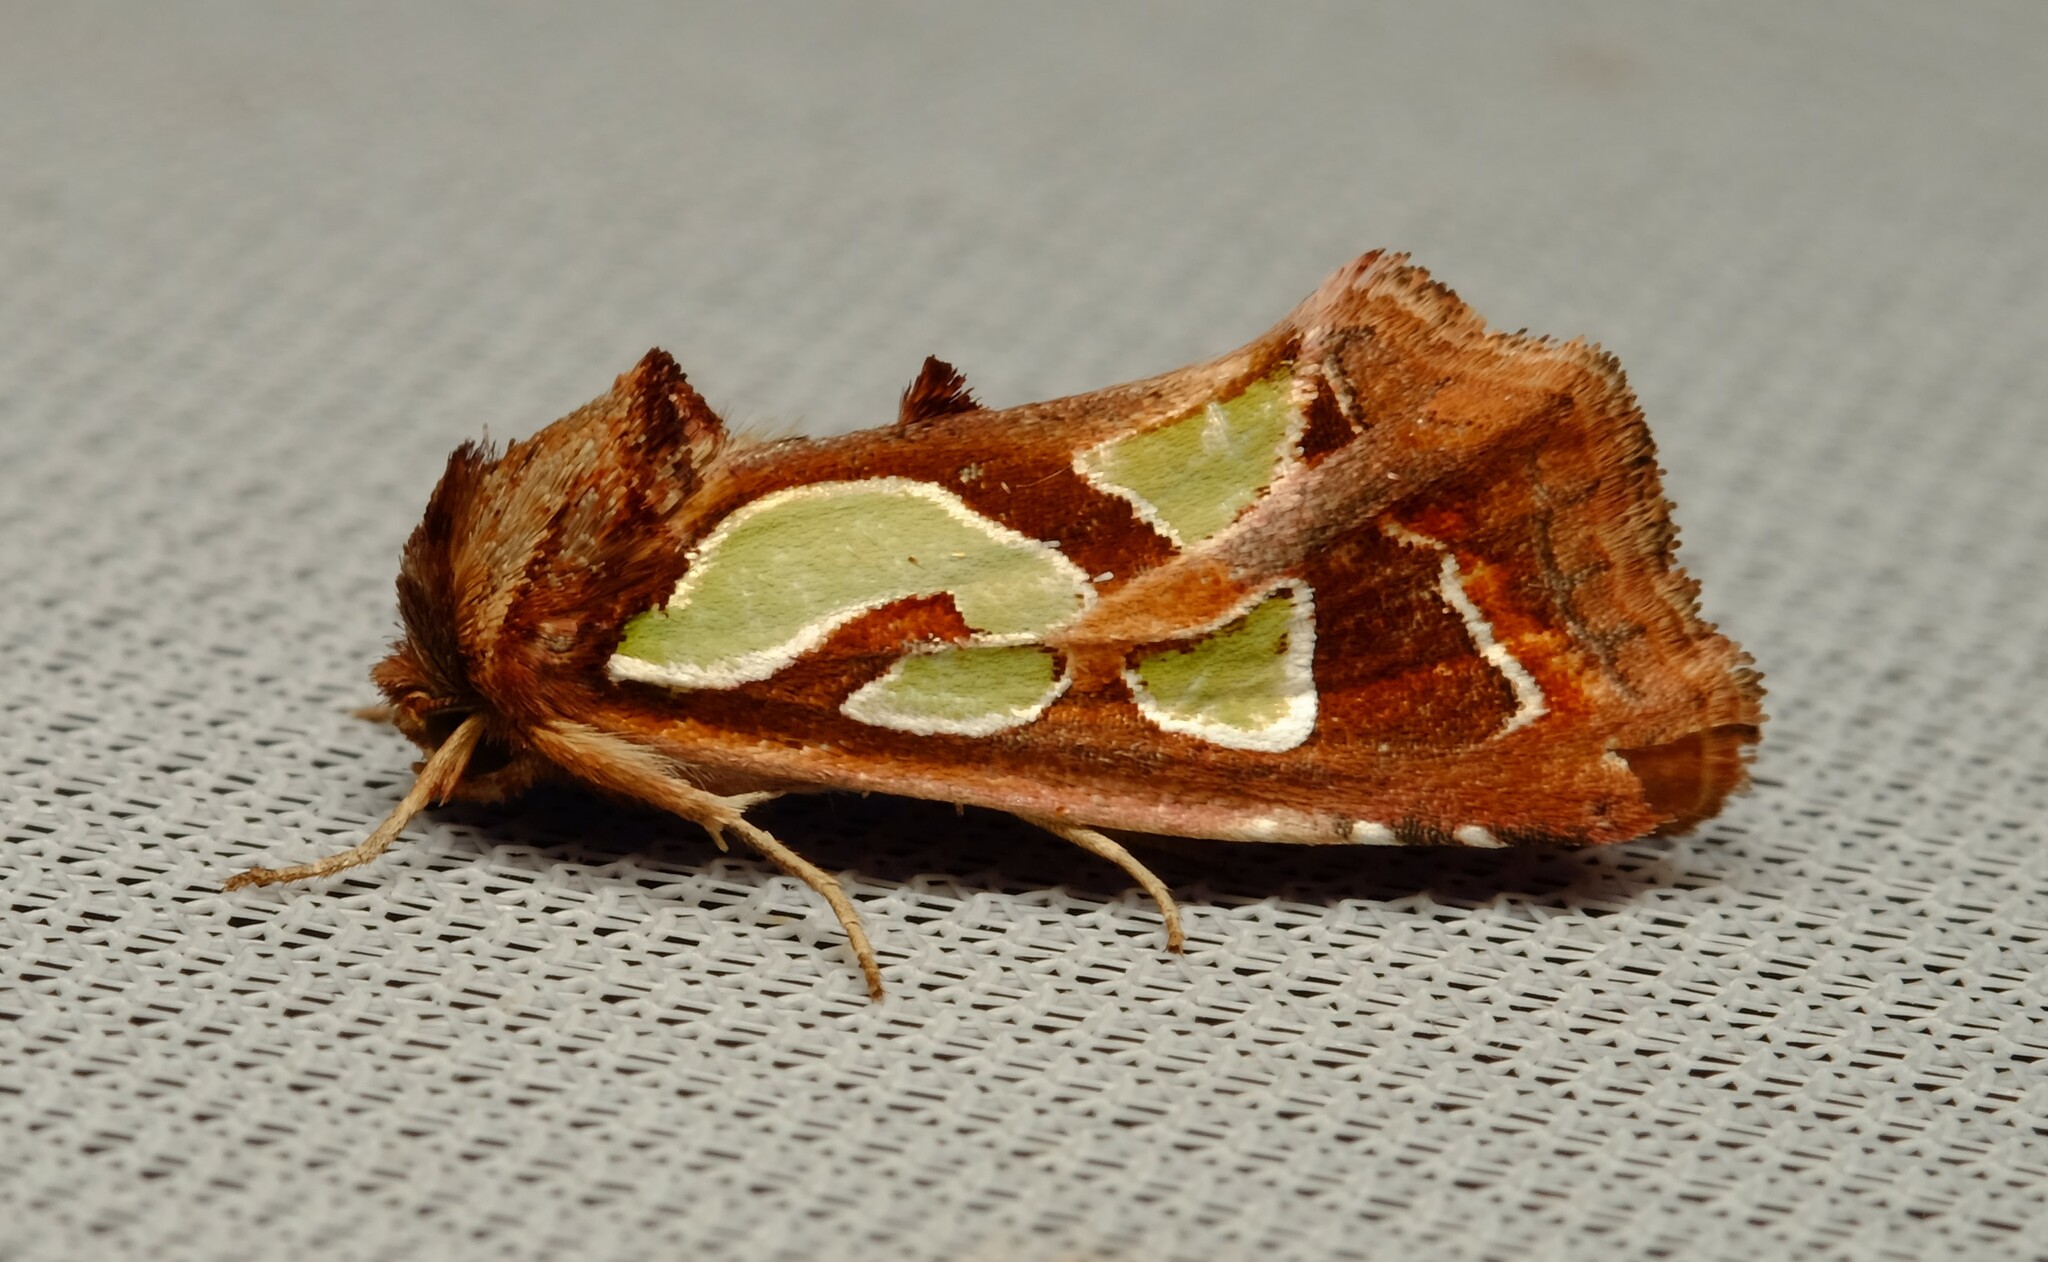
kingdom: Animalia
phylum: Arthropoda
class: Insecta
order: Lepidoptera
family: Noctuidae
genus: Cosmodes
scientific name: Cosmodes elegans
